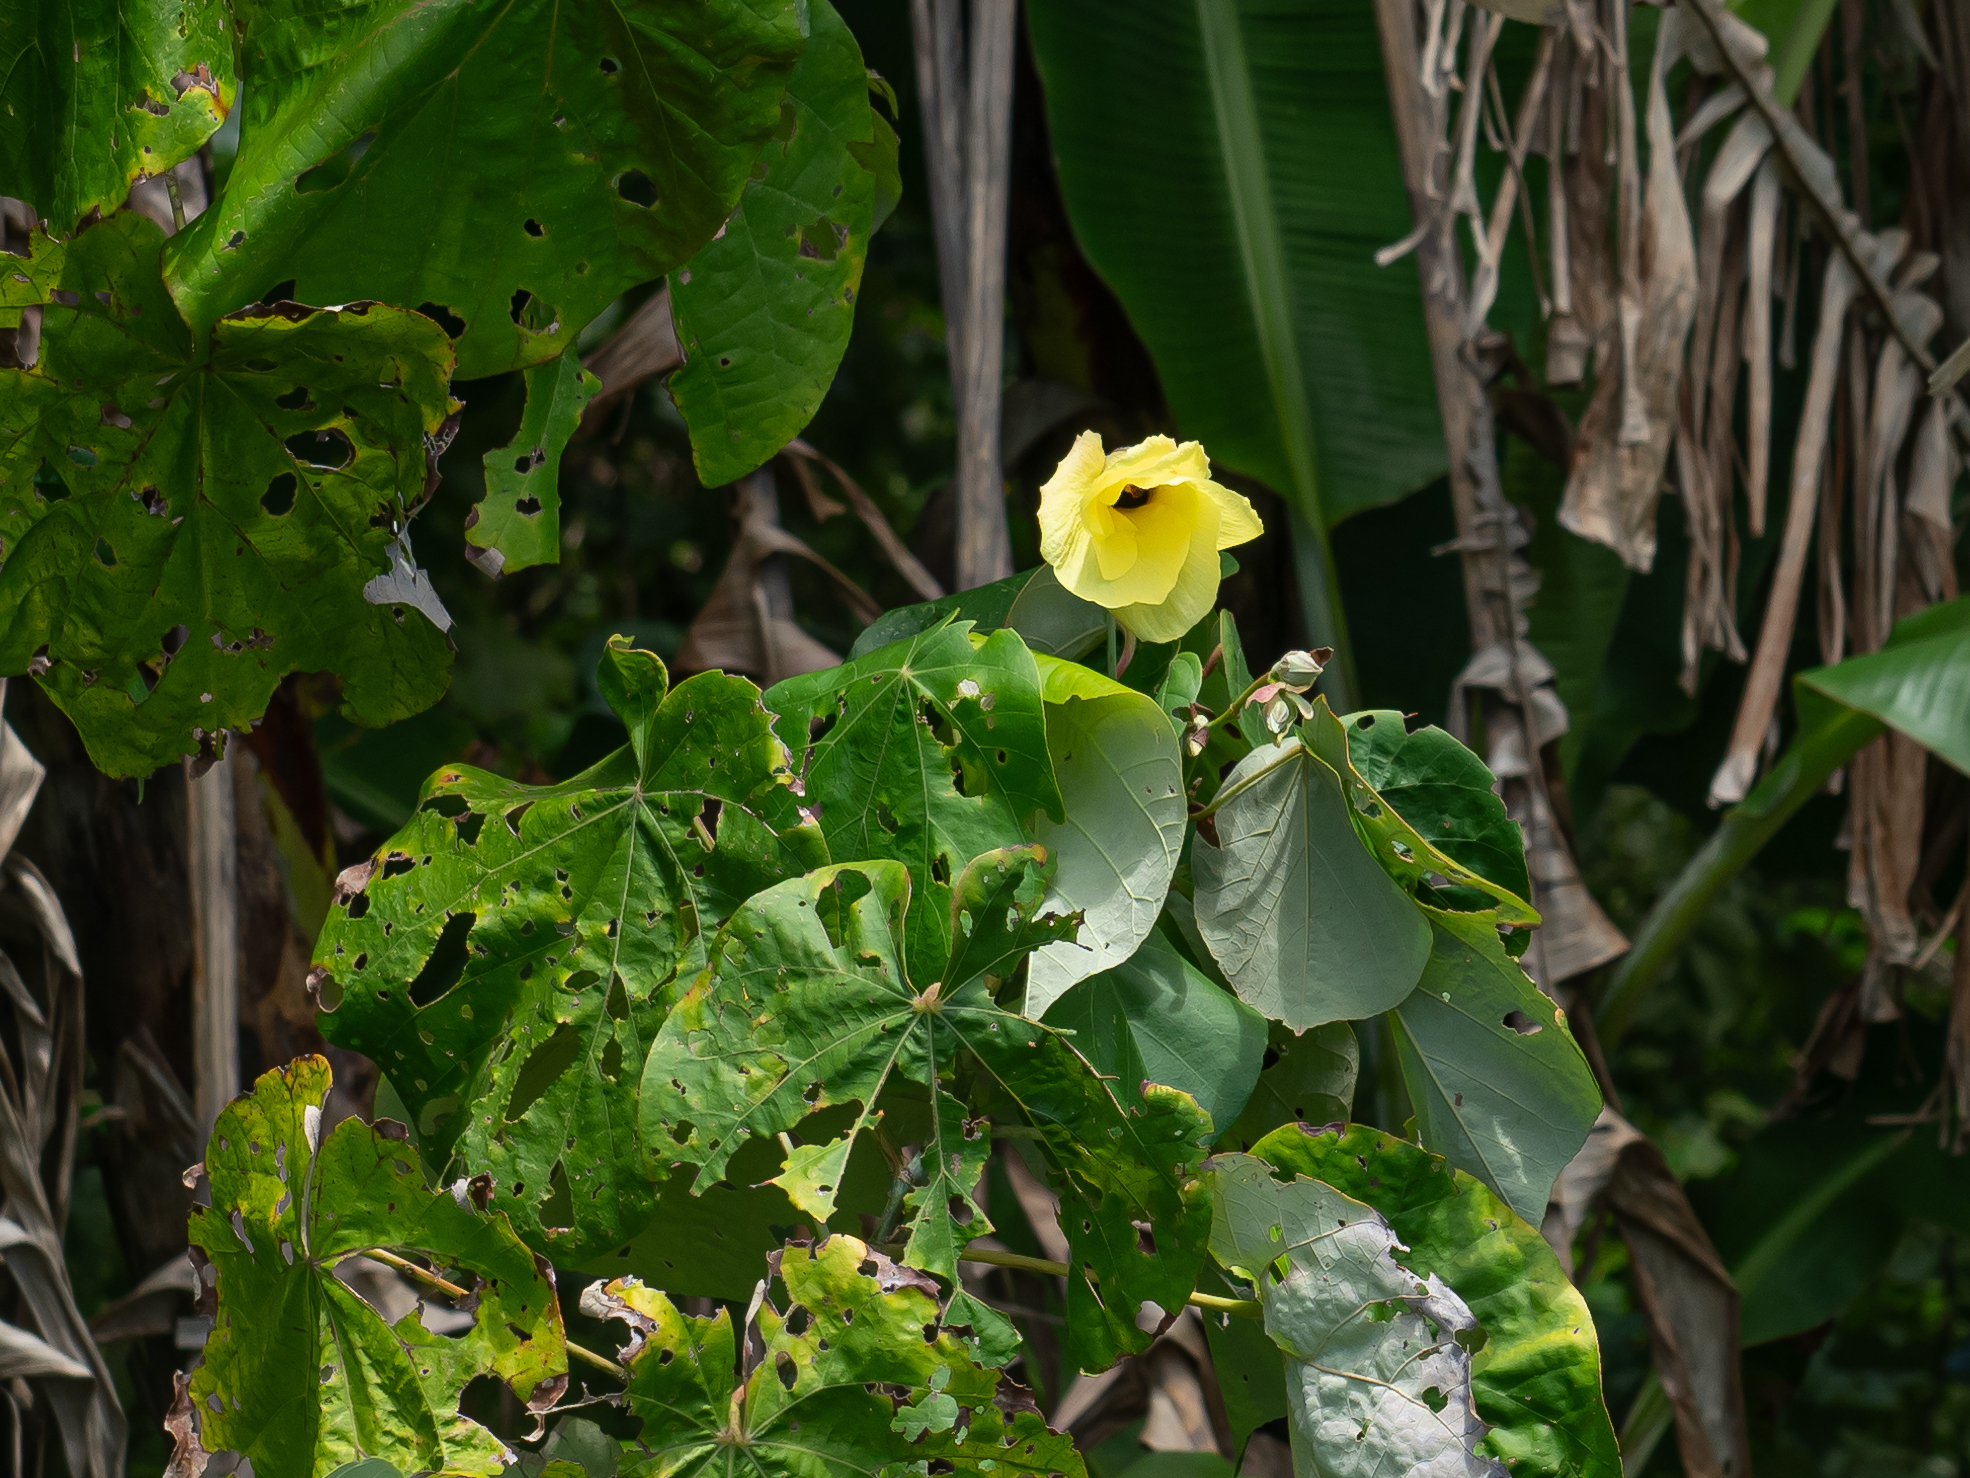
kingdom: Plantae
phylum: Tracheophyta
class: Magnoliopsida
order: Malvales
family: Malvaceae
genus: Talipariti
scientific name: Talipariti tiliaceum
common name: Sea hibiscus
